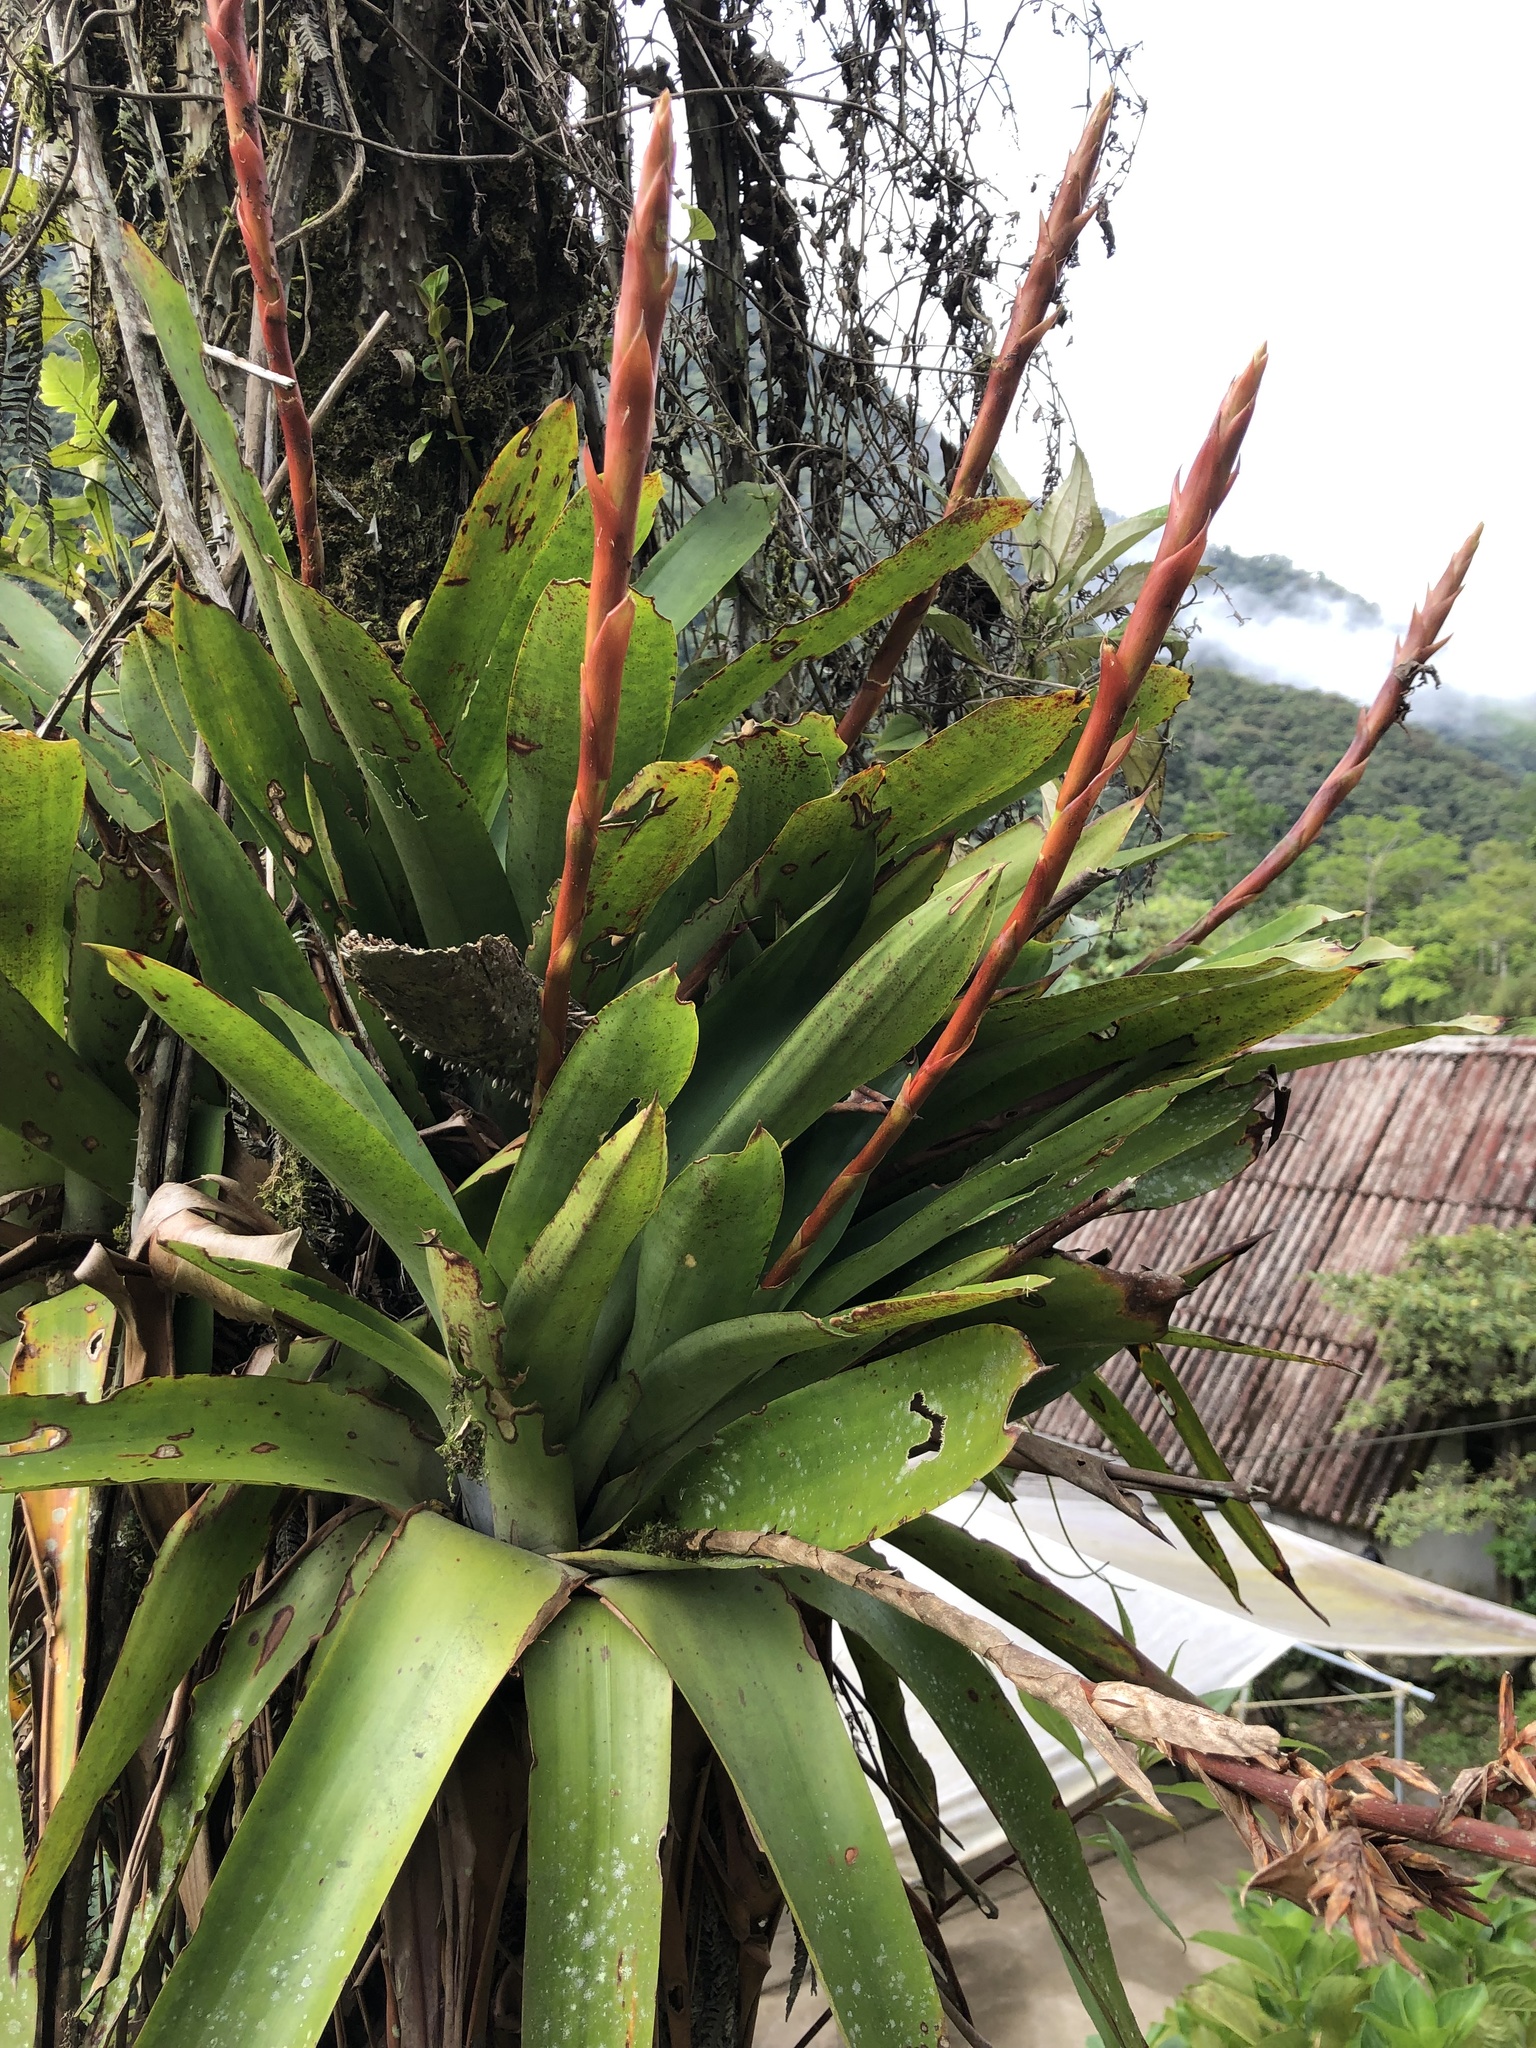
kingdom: Plantae
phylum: Tracheophyta
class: Liliopsida
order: Poales
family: Bromeliaceae
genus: Cipuropsis
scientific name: Cipuropsis truncata
